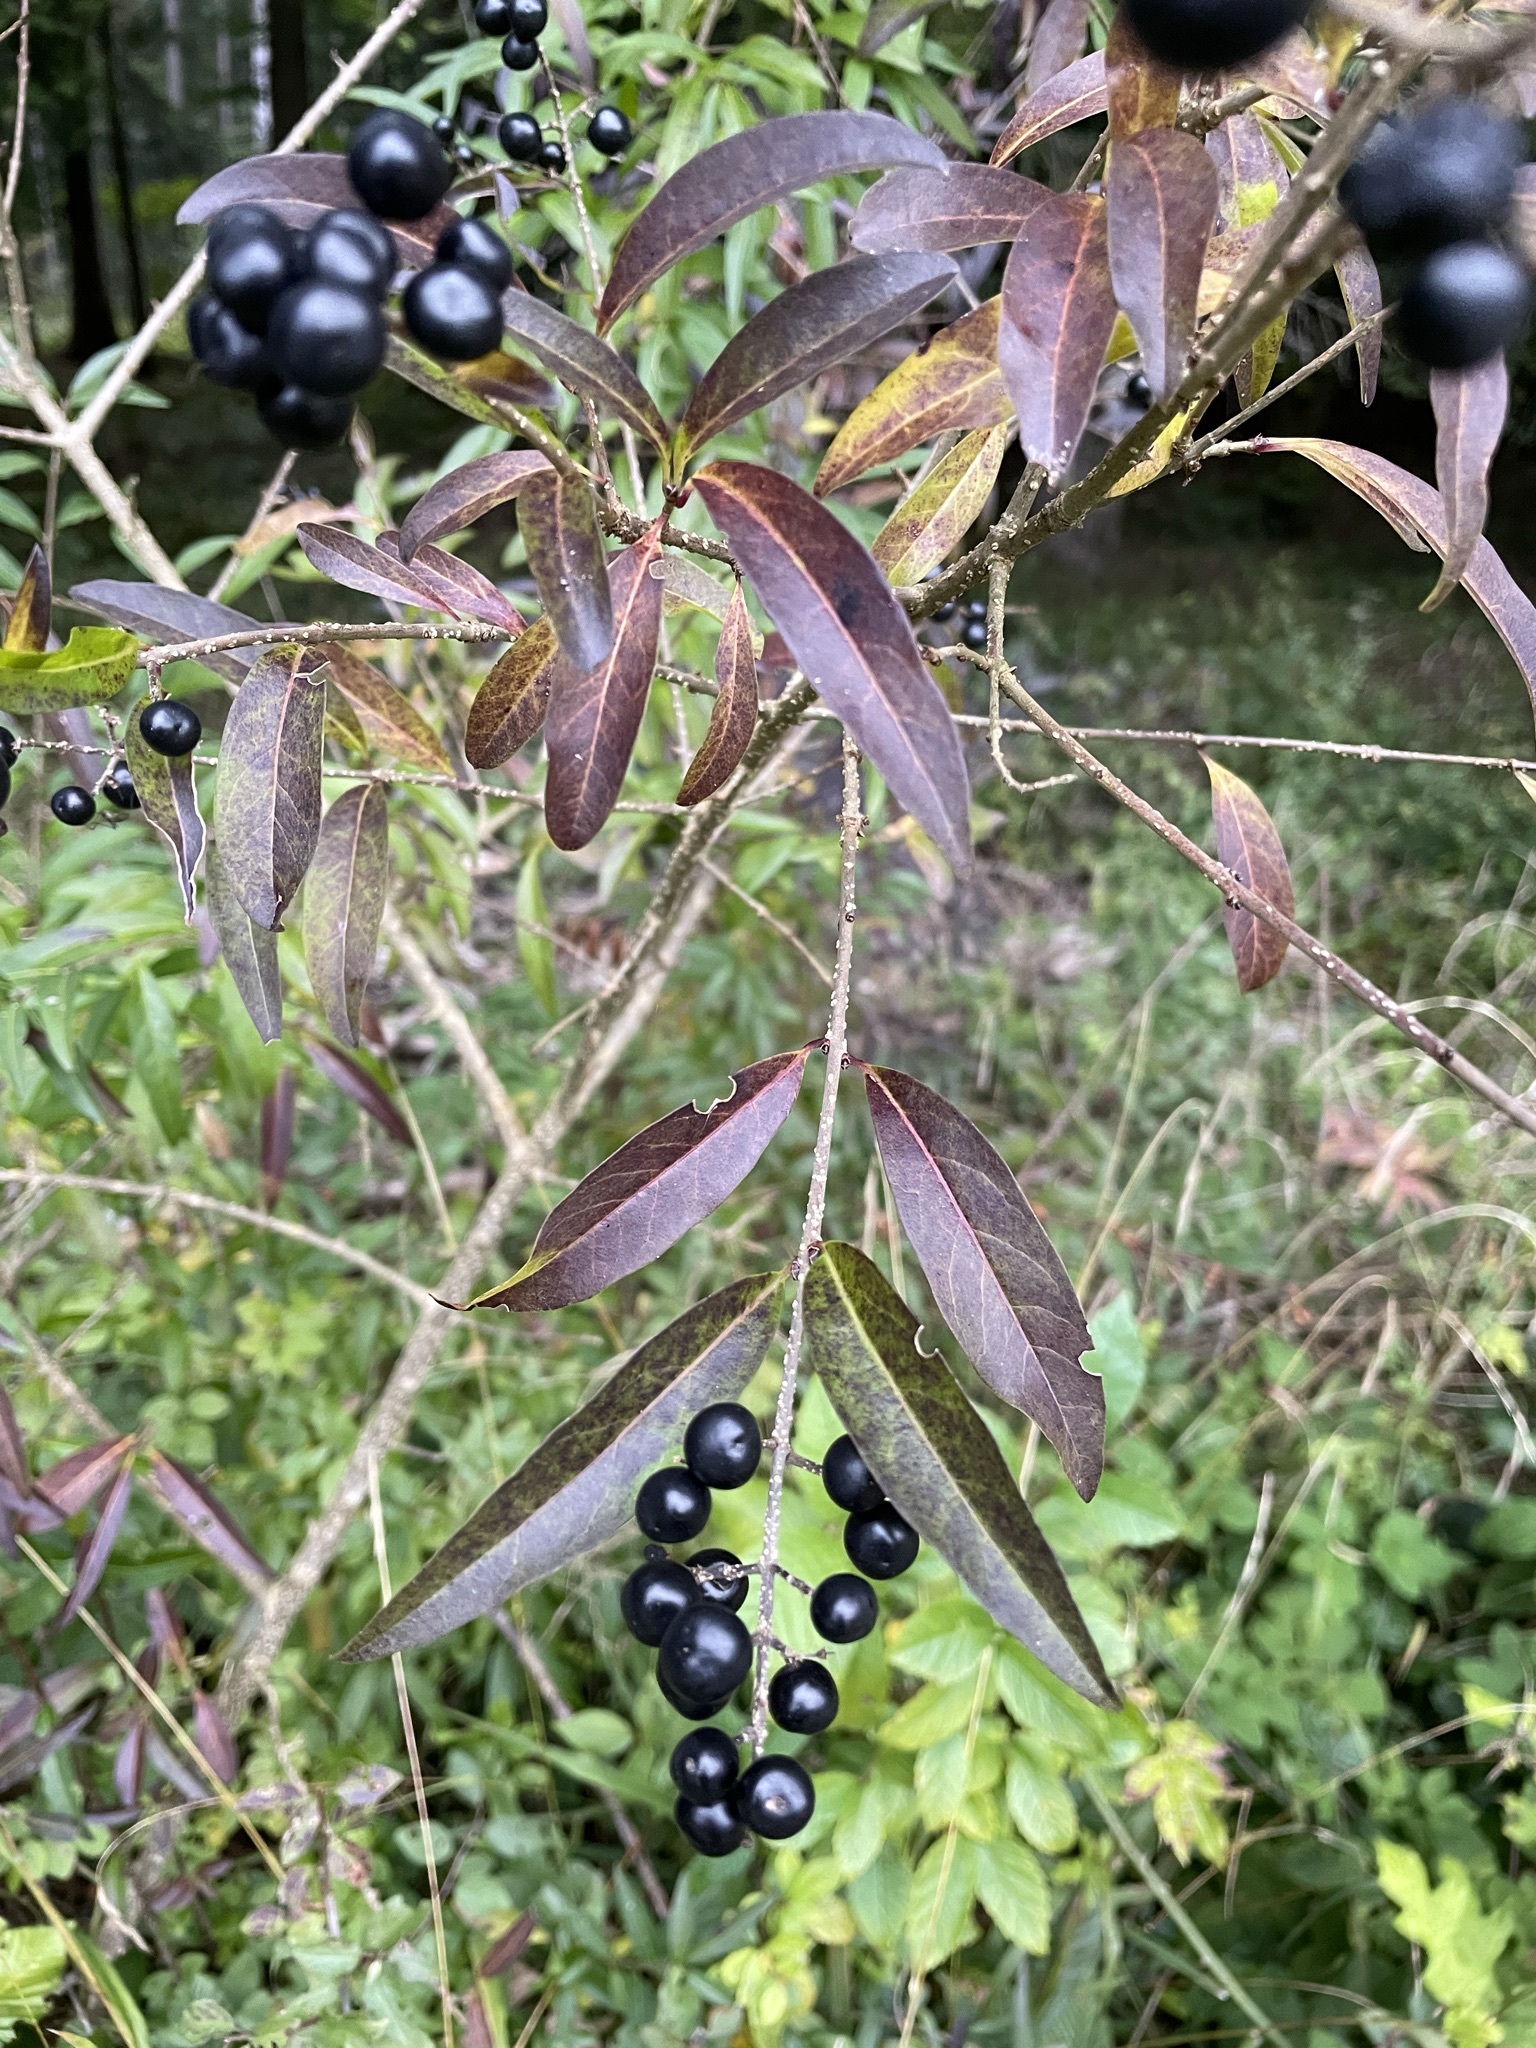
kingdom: Plantae
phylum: Tracheophyta
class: Magnoliopsida
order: Lamiales
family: Oleaceae
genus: Ligustrum
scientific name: Ligustrum vulgare
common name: Wild privet
